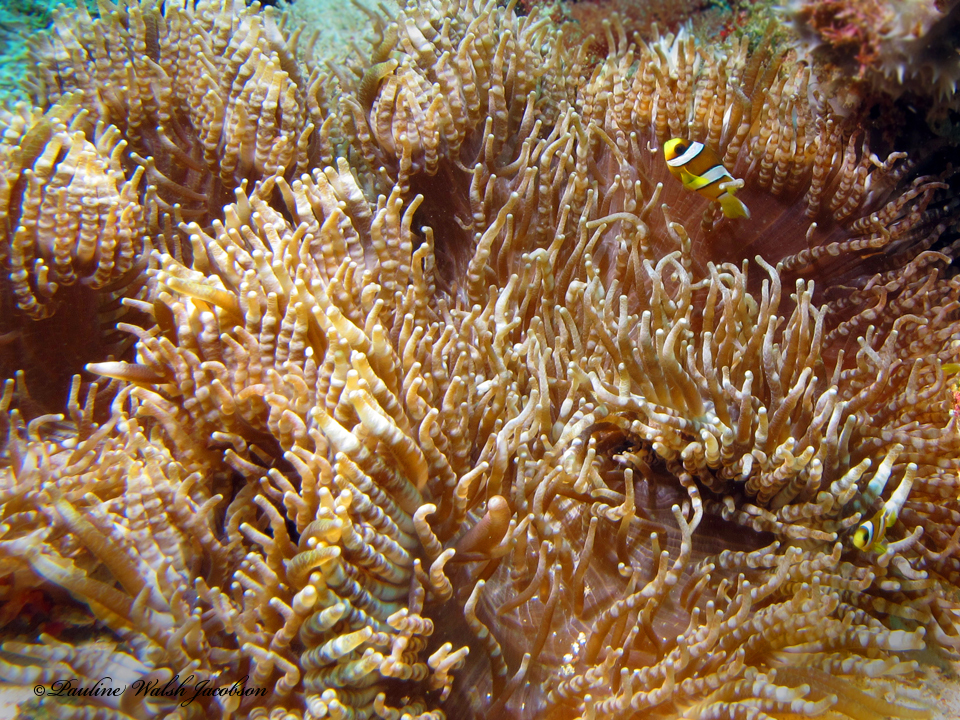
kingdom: Animalia
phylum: Chordata
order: Perciformes
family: Pomacentridae
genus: Amphiprion
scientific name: Amphiprion clarkii
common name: Clark's anemonefish
